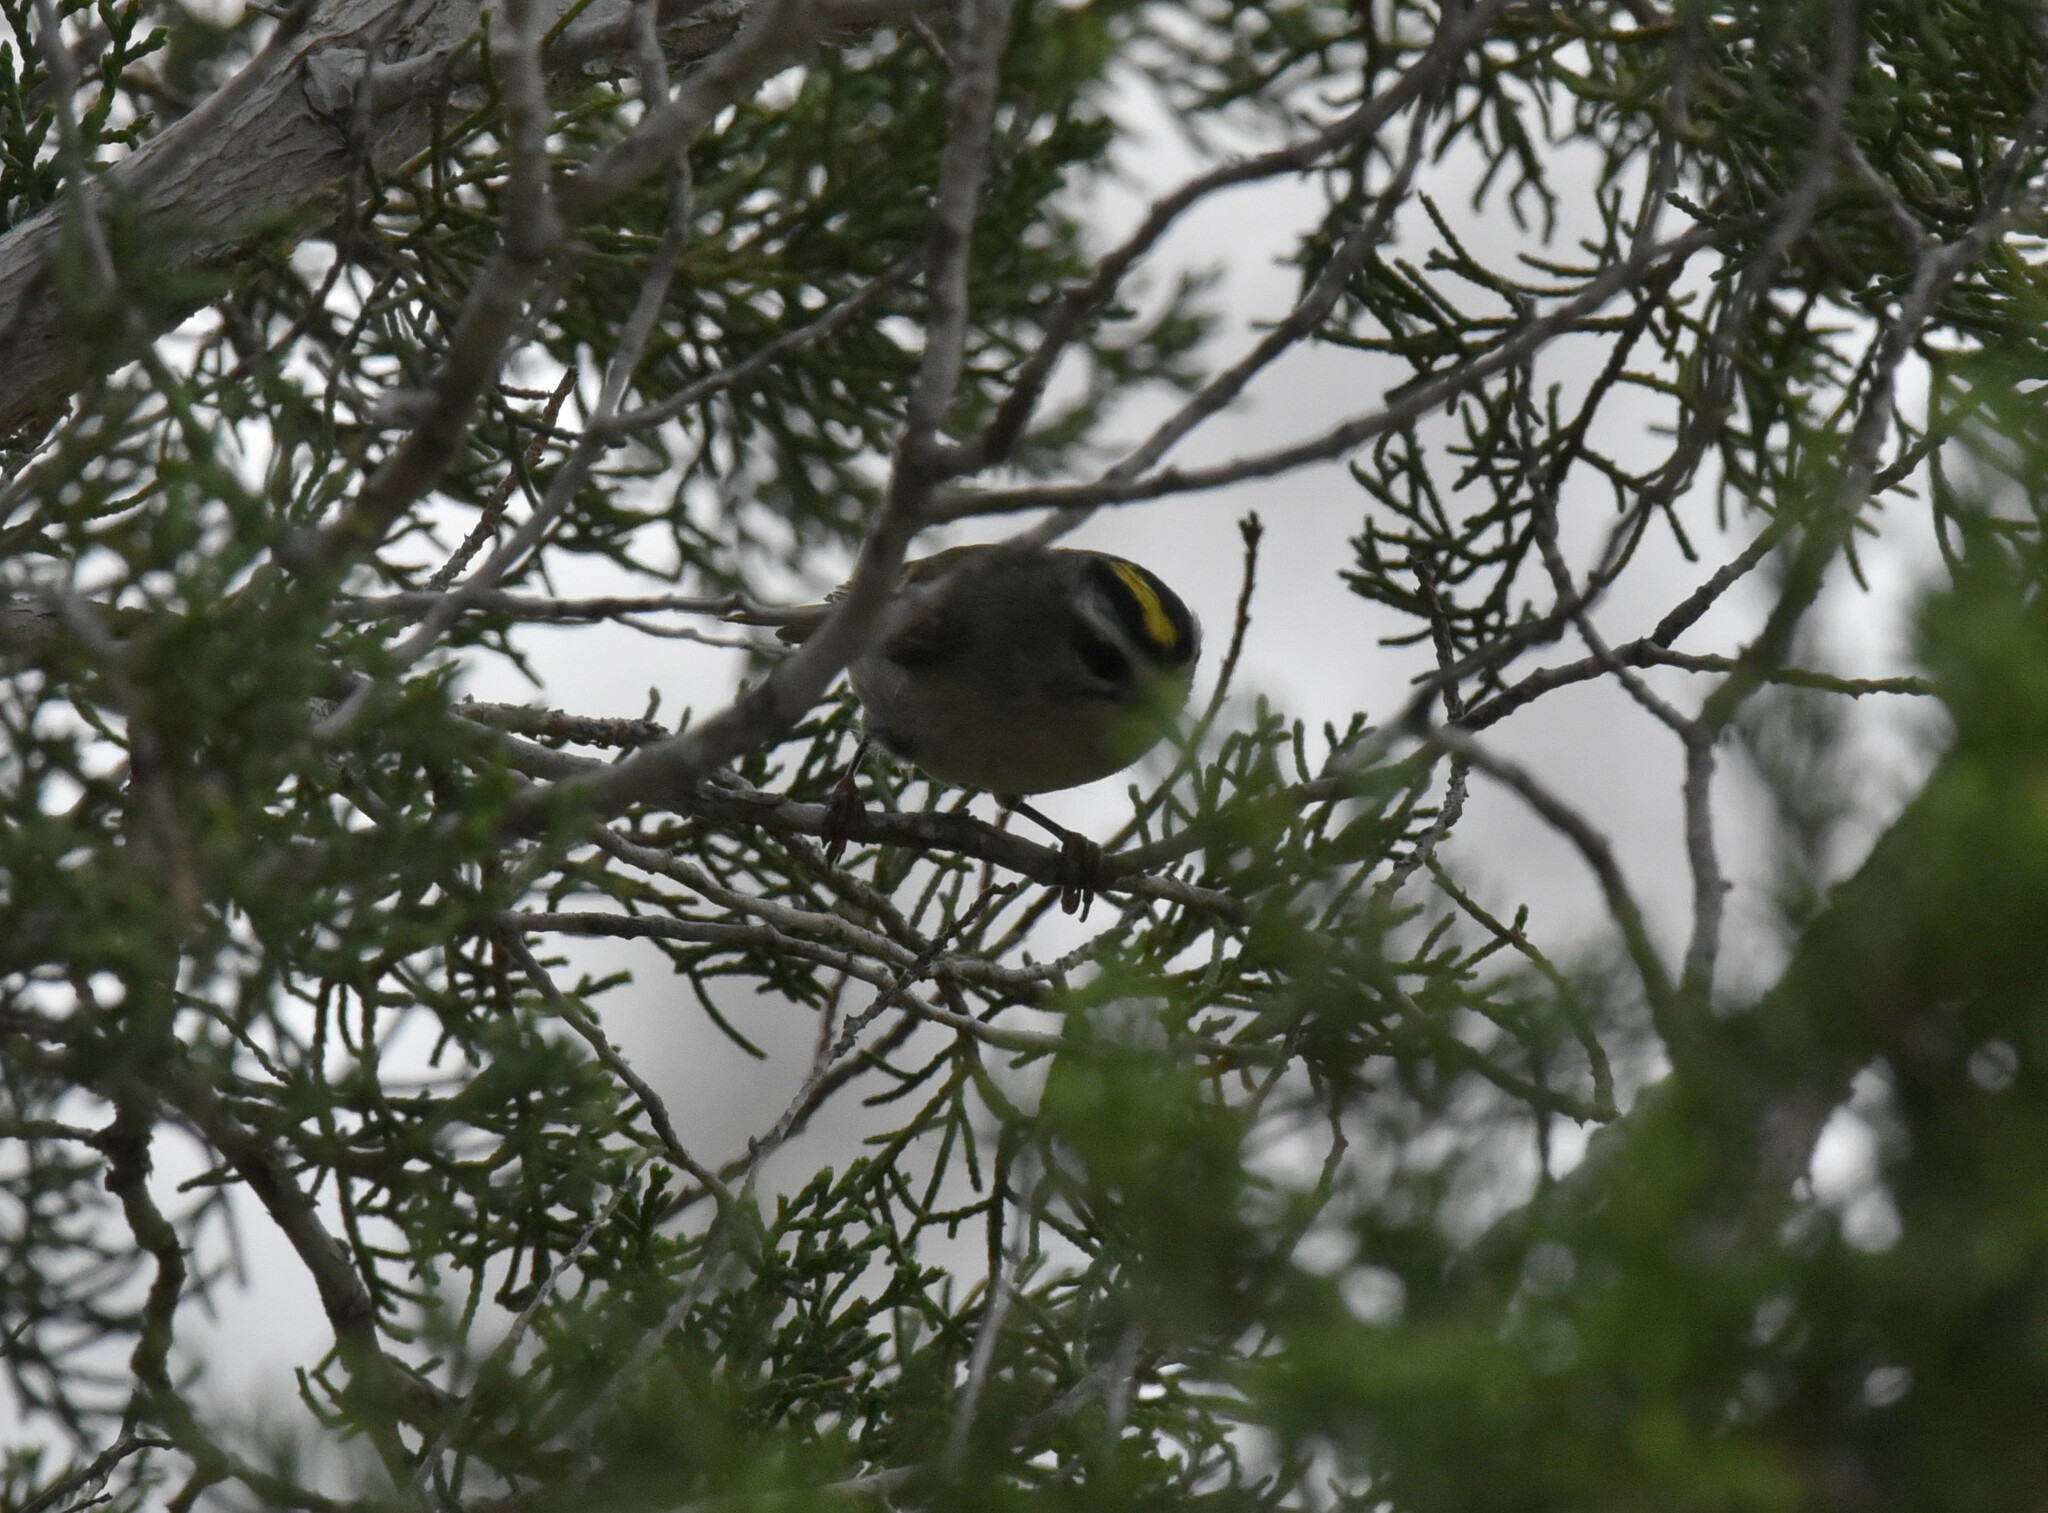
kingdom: Animalia
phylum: Chordata
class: Aves
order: Passeriformes
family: Regulidae
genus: Regulus
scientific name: Regulus satrapa
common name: Golden-crowned kinglet
